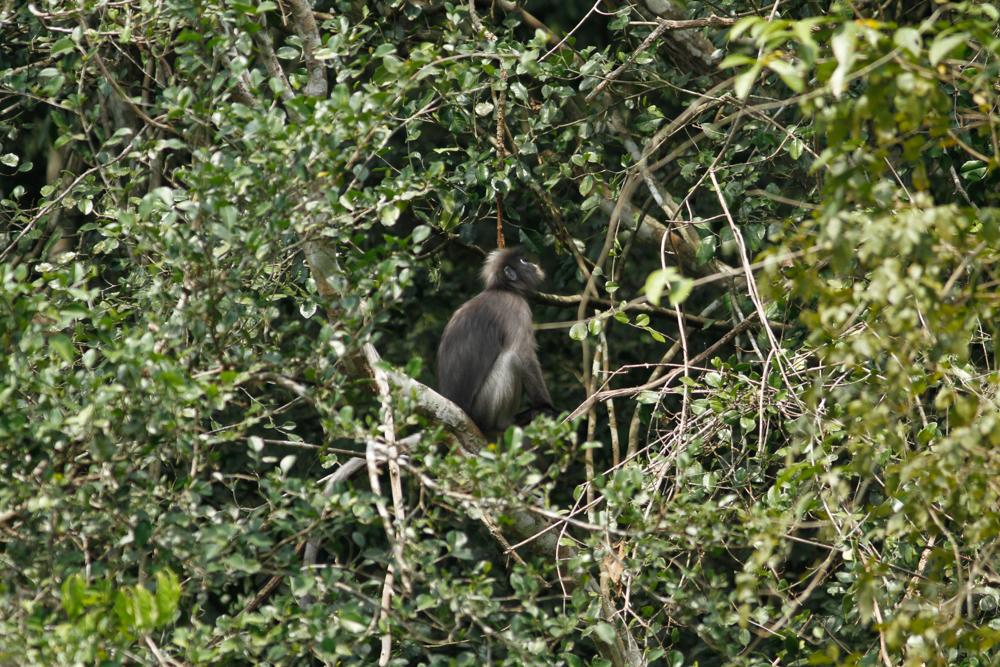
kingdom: Animalia
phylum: Chordata
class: Mammalia
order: Primates
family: Cercopithecidae
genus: Trachypithecus
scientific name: Trachypithecus obscurus
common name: Dusky leaf-monkey
